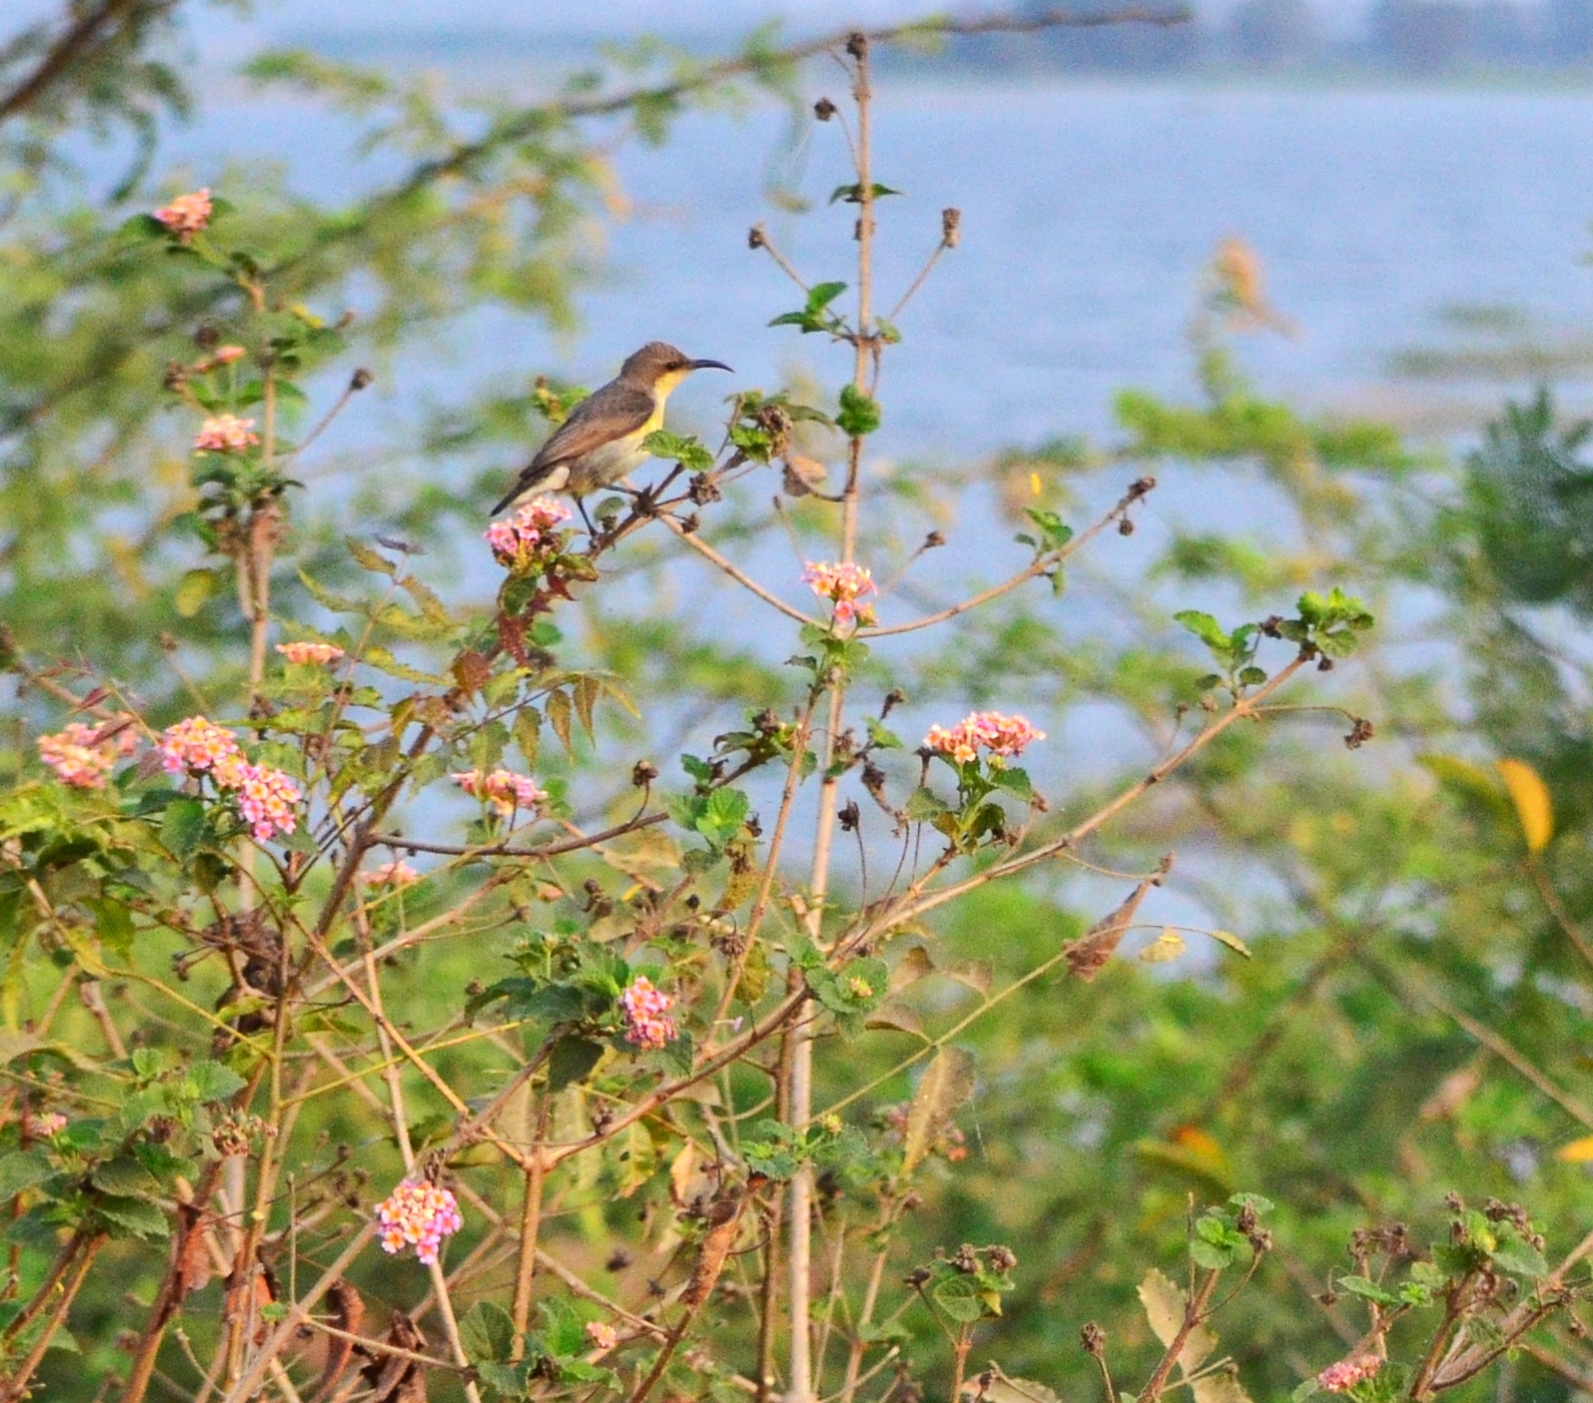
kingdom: Animalia
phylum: Chordata
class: Aves
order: Passeriformes
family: Nectariniidae
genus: Cinnyris
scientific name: Cinnyris asiaticus
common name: Purple sunbird
